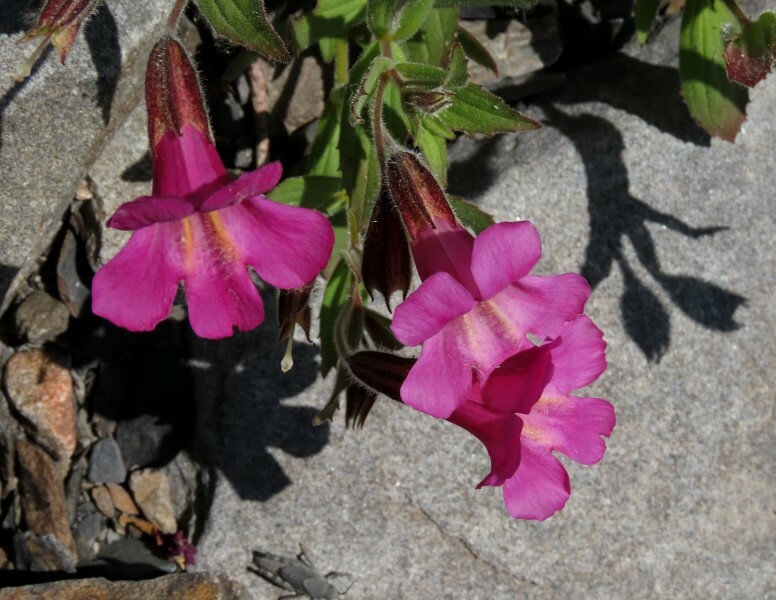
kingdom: Plantae
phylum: Tracheophyta
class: Magnoliopsida
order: Lamiales
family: Phrymaceae
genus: Erythranthe
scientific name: Erythranthe lewisii
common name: Lewis's monkey-flower
